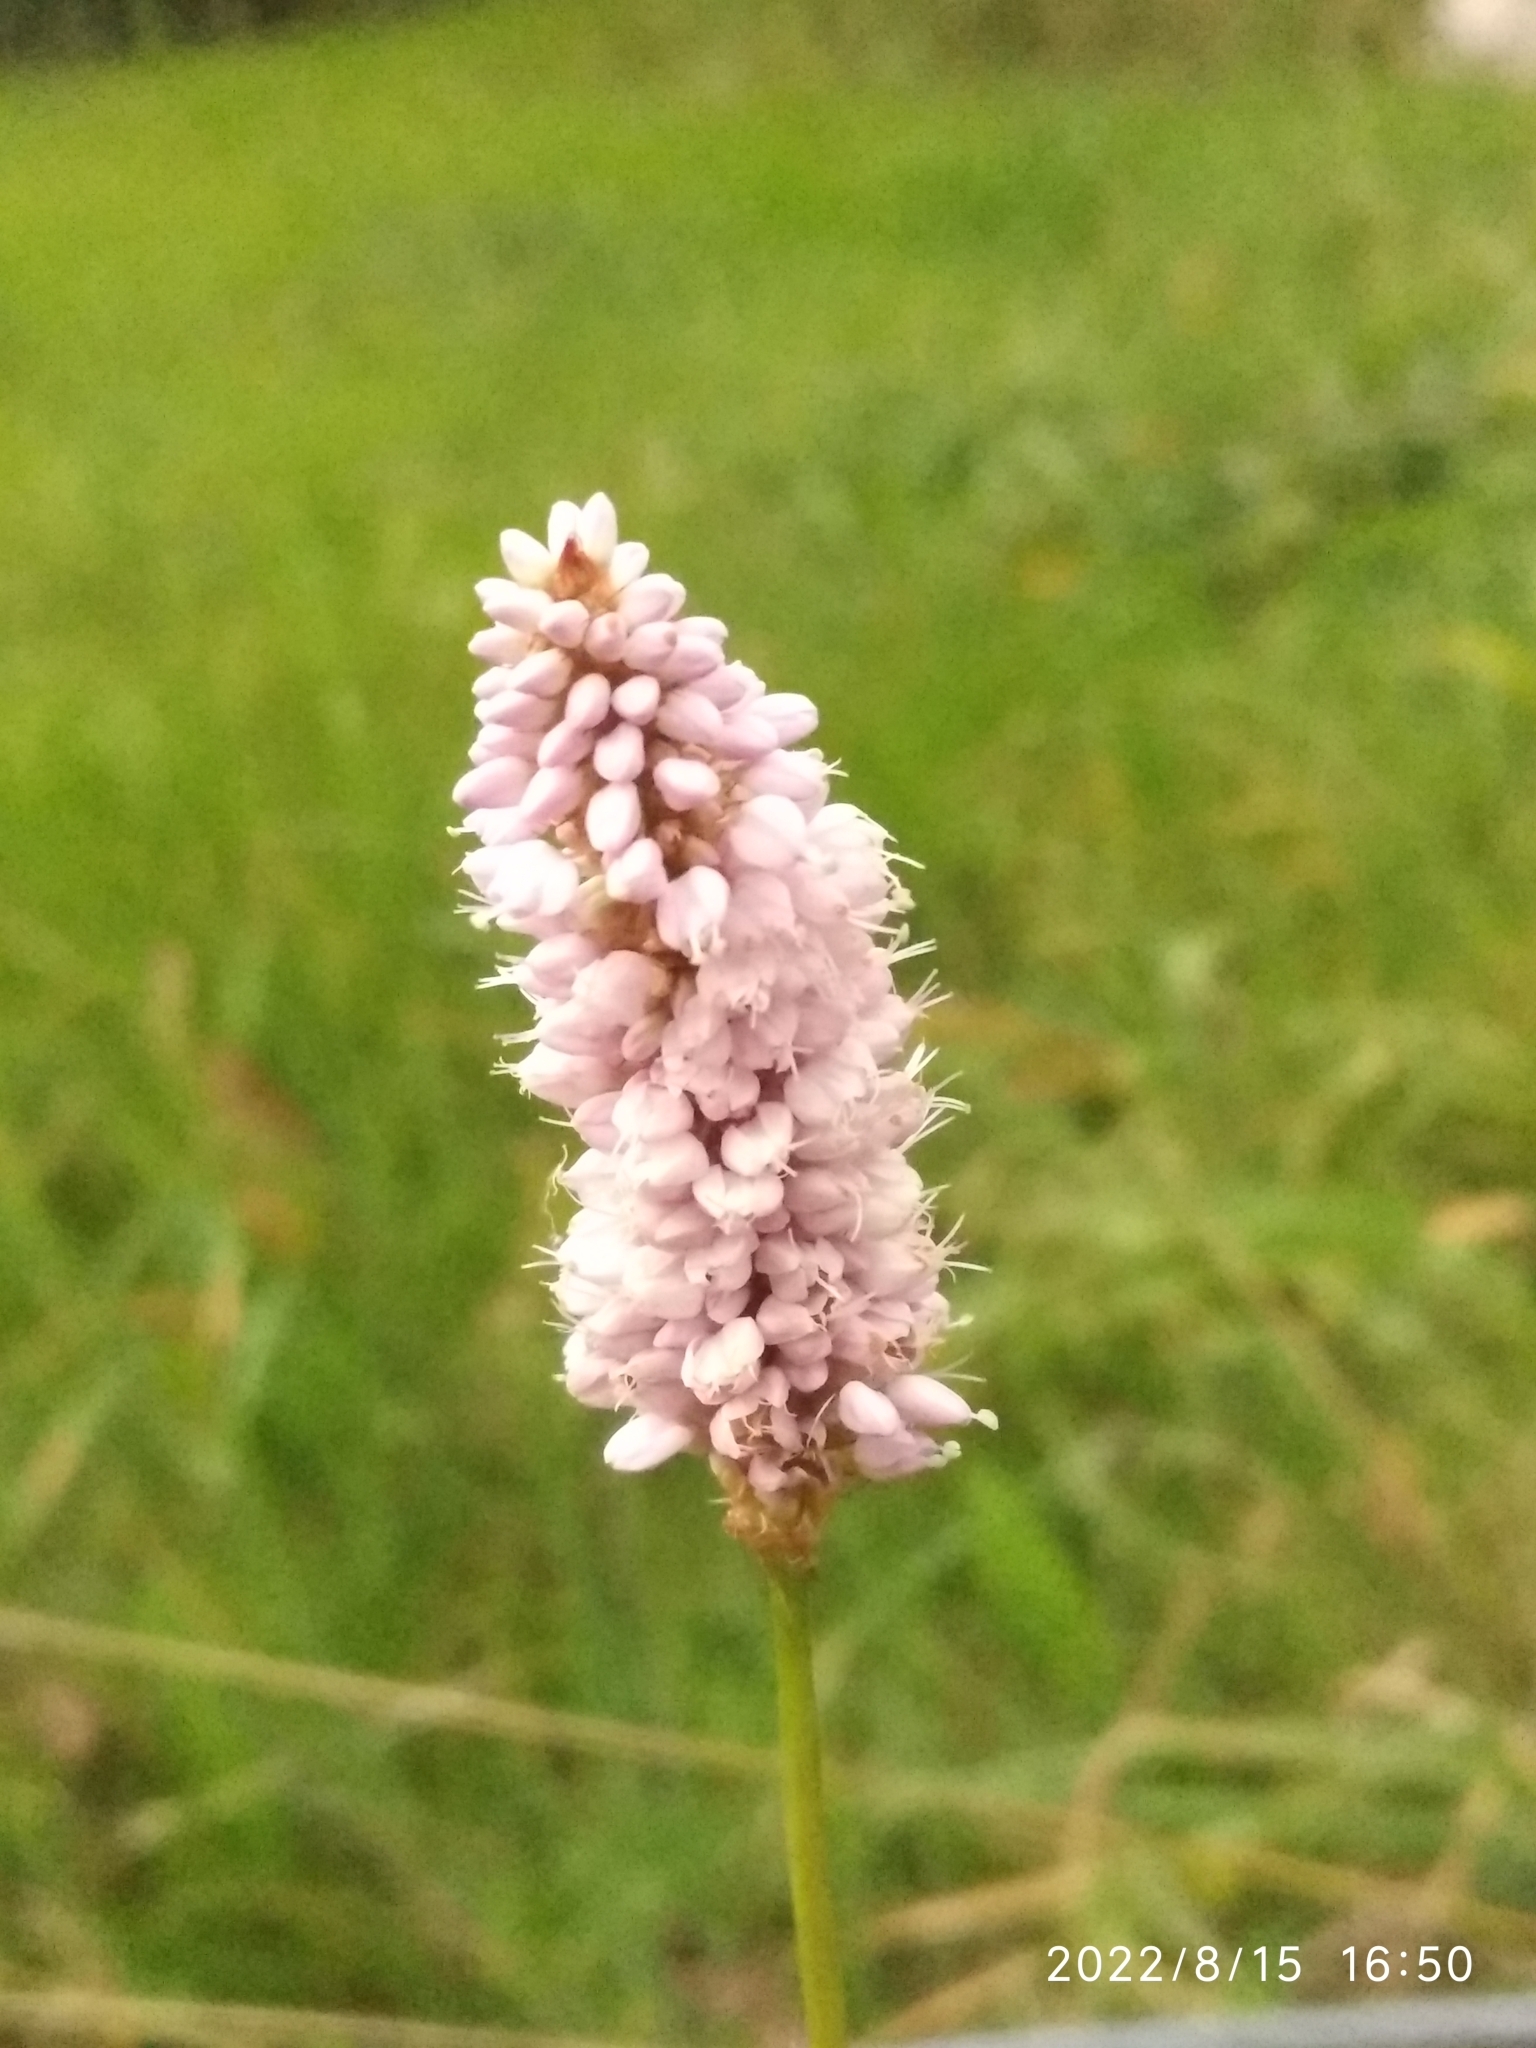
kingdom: Plantae
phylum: Tracheophyta
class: Magnoliopsida
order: Caryophyllales
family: Polygonaceae
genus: Bistorta
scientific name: Bistorta officinalis
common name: Common bistort
